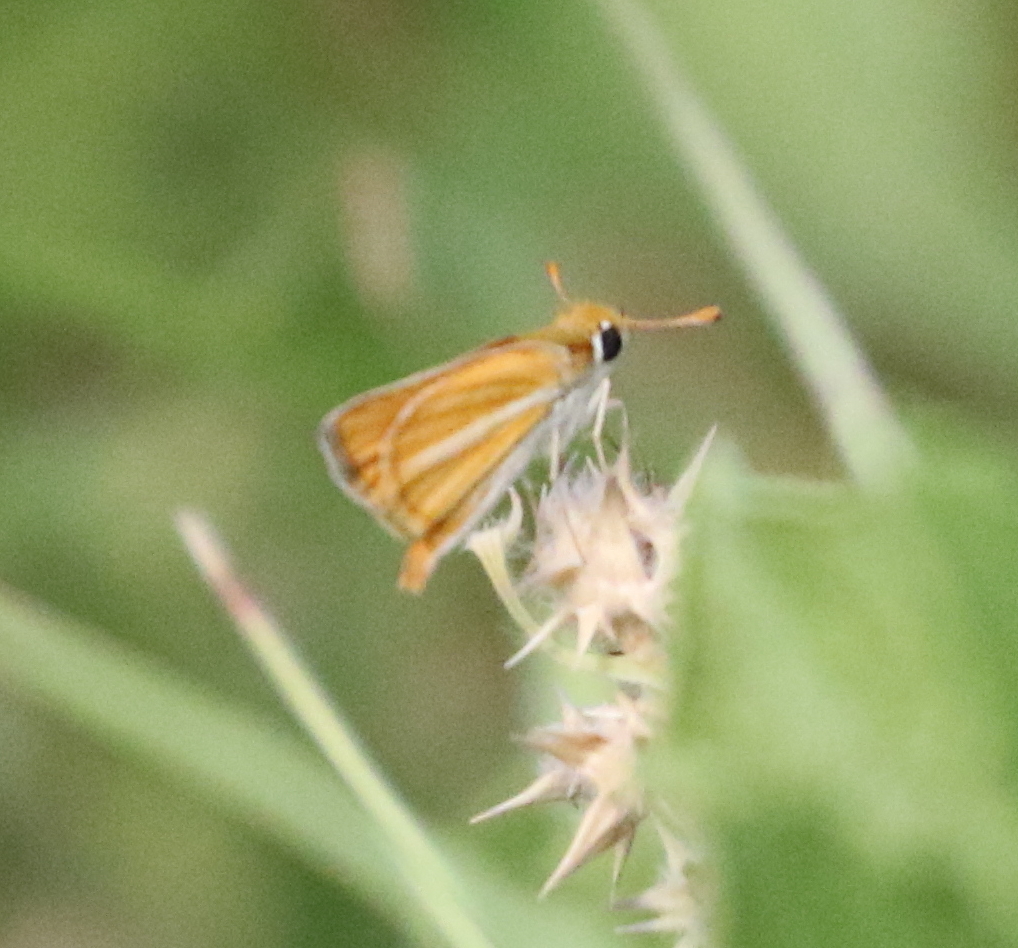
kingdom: Animalia
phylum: Arthropoda
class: Insecta
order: Lepidoptera
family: Hesperiidae
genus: Copaeodes
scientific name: Copaeodes minima
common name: Southern skipperling
